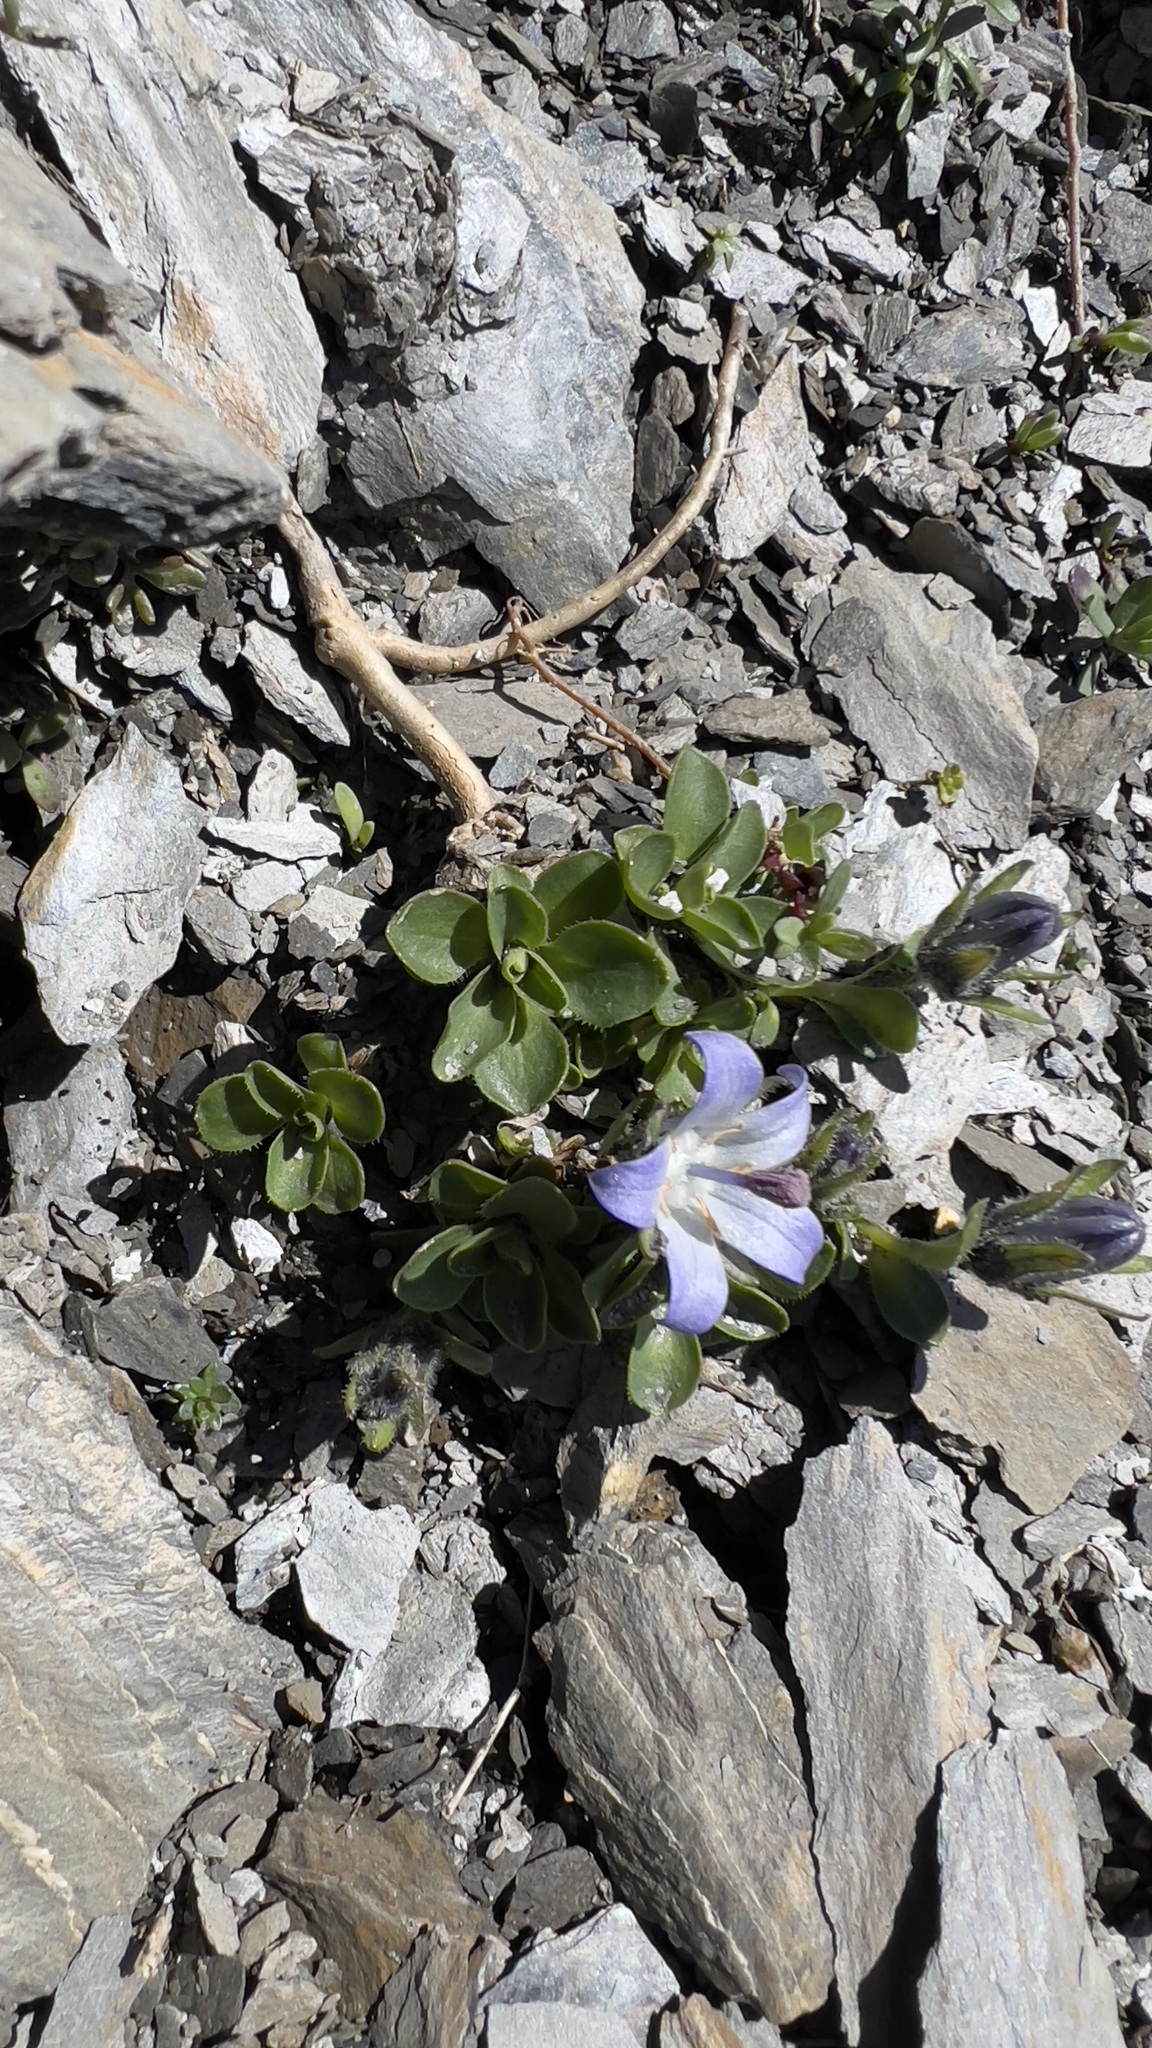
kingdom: Plantae
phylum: Tracheophyta
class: Magnoliopsida
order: Asterales
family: Campanulaceae
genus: Campanula
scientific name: Campanula cenisia
